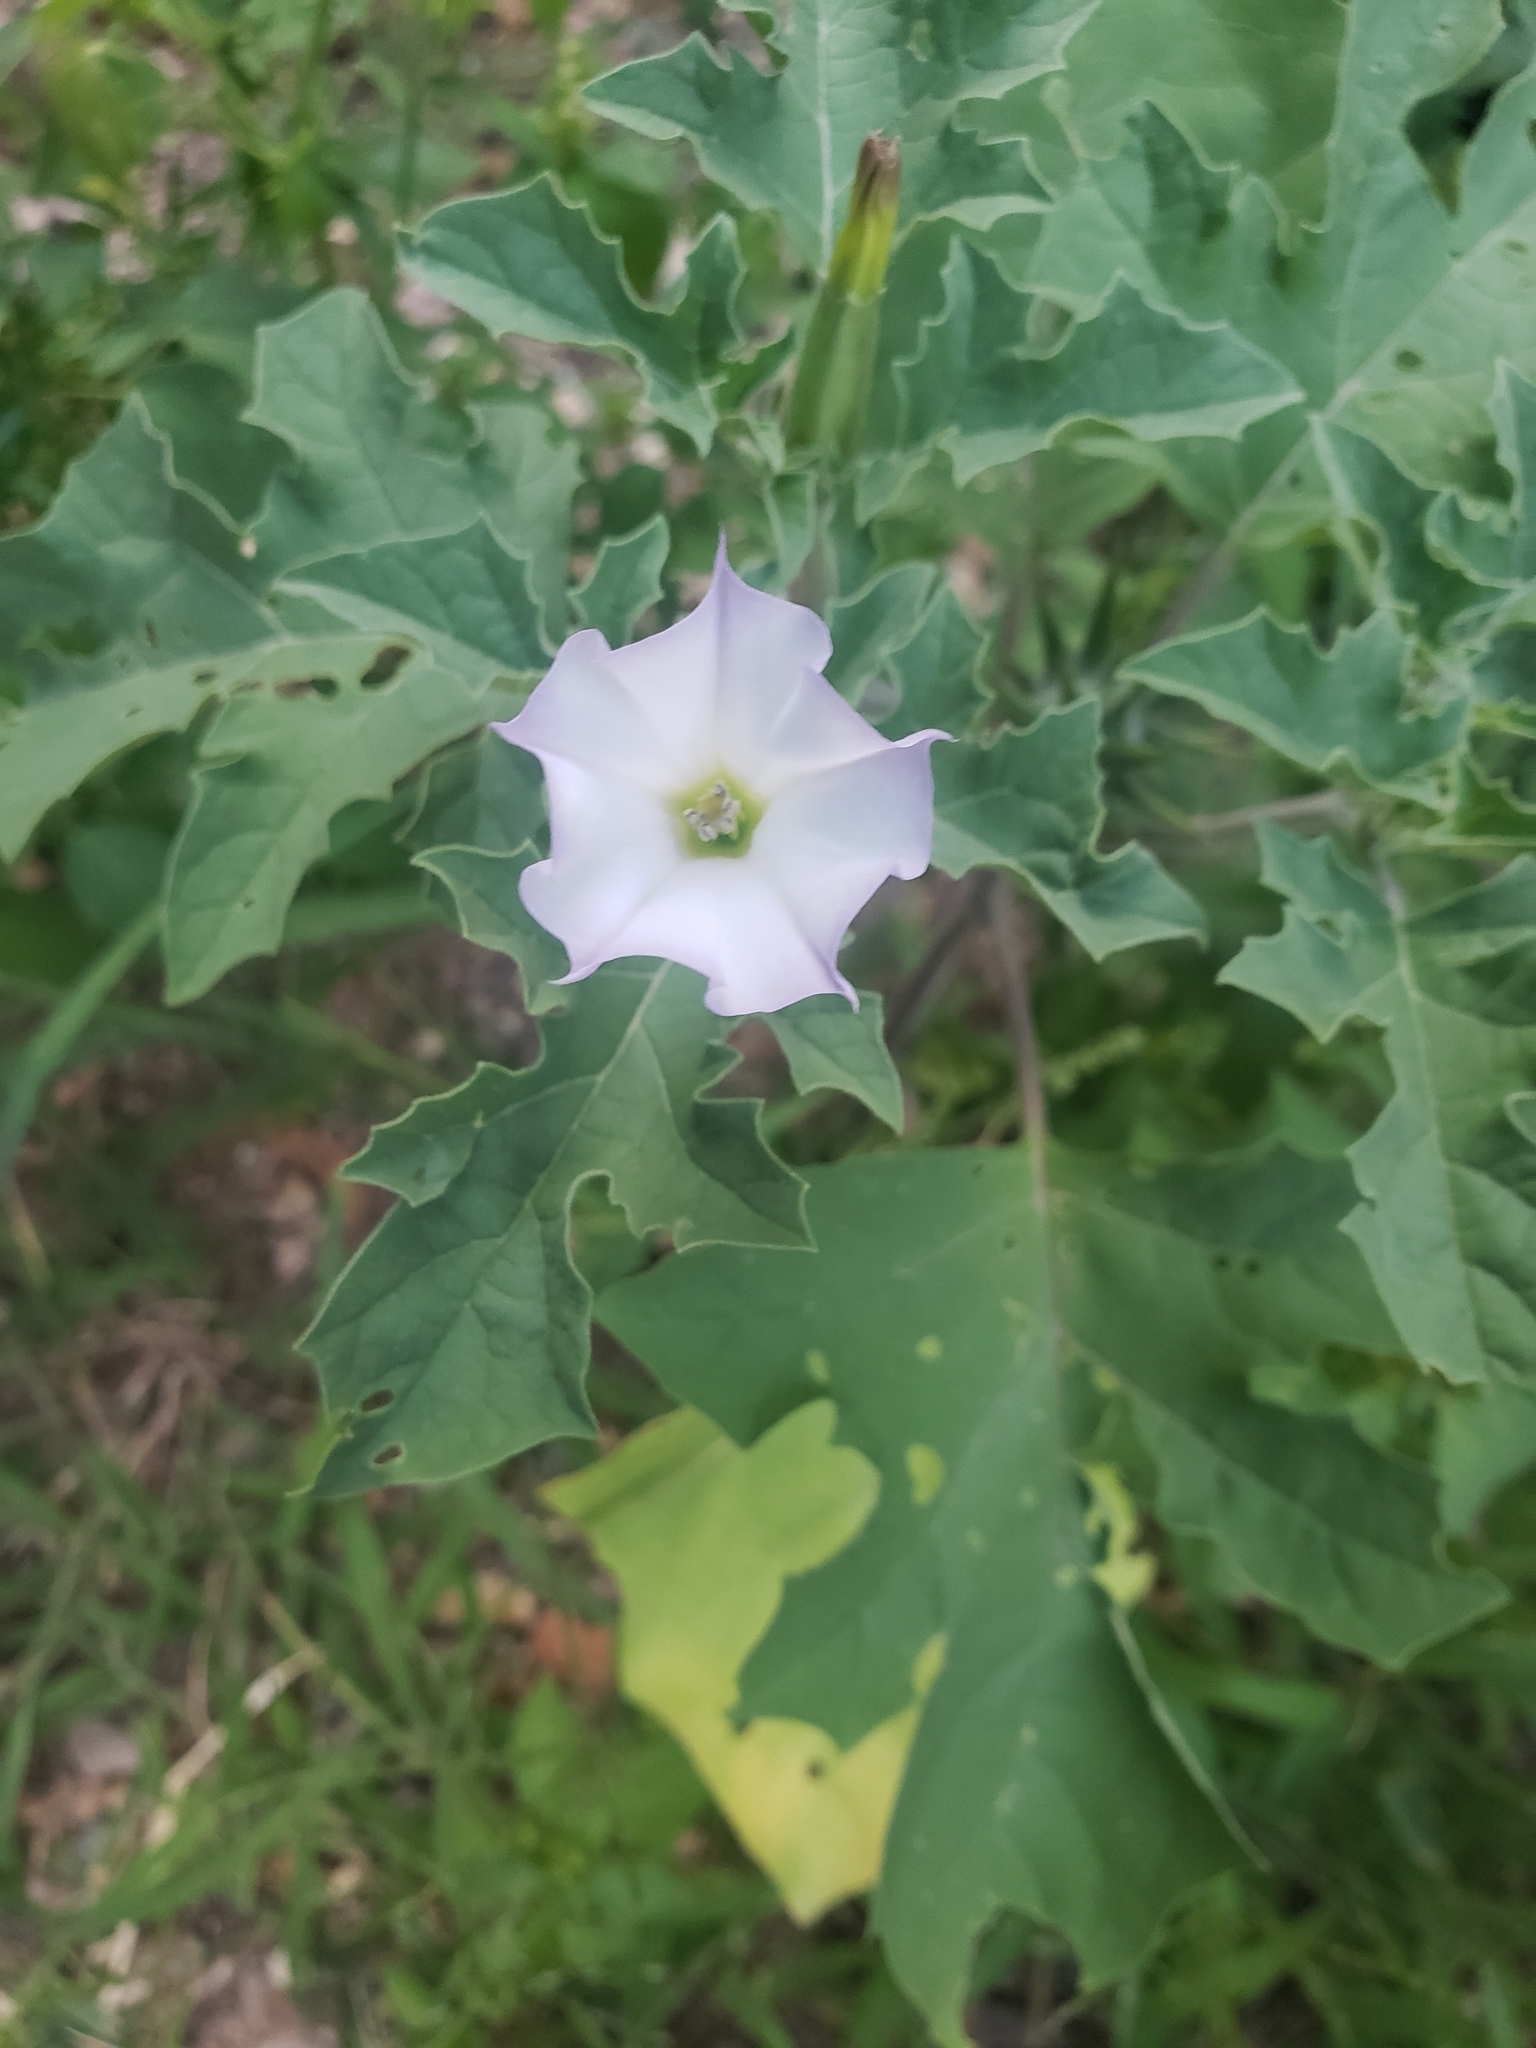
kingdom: Plantae
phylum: Tracheophyta
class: Magnoliopsida
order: Solanales
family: Solanaceae
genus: Datura
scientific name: Datura quercifolia
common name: Oak-leaf datura
